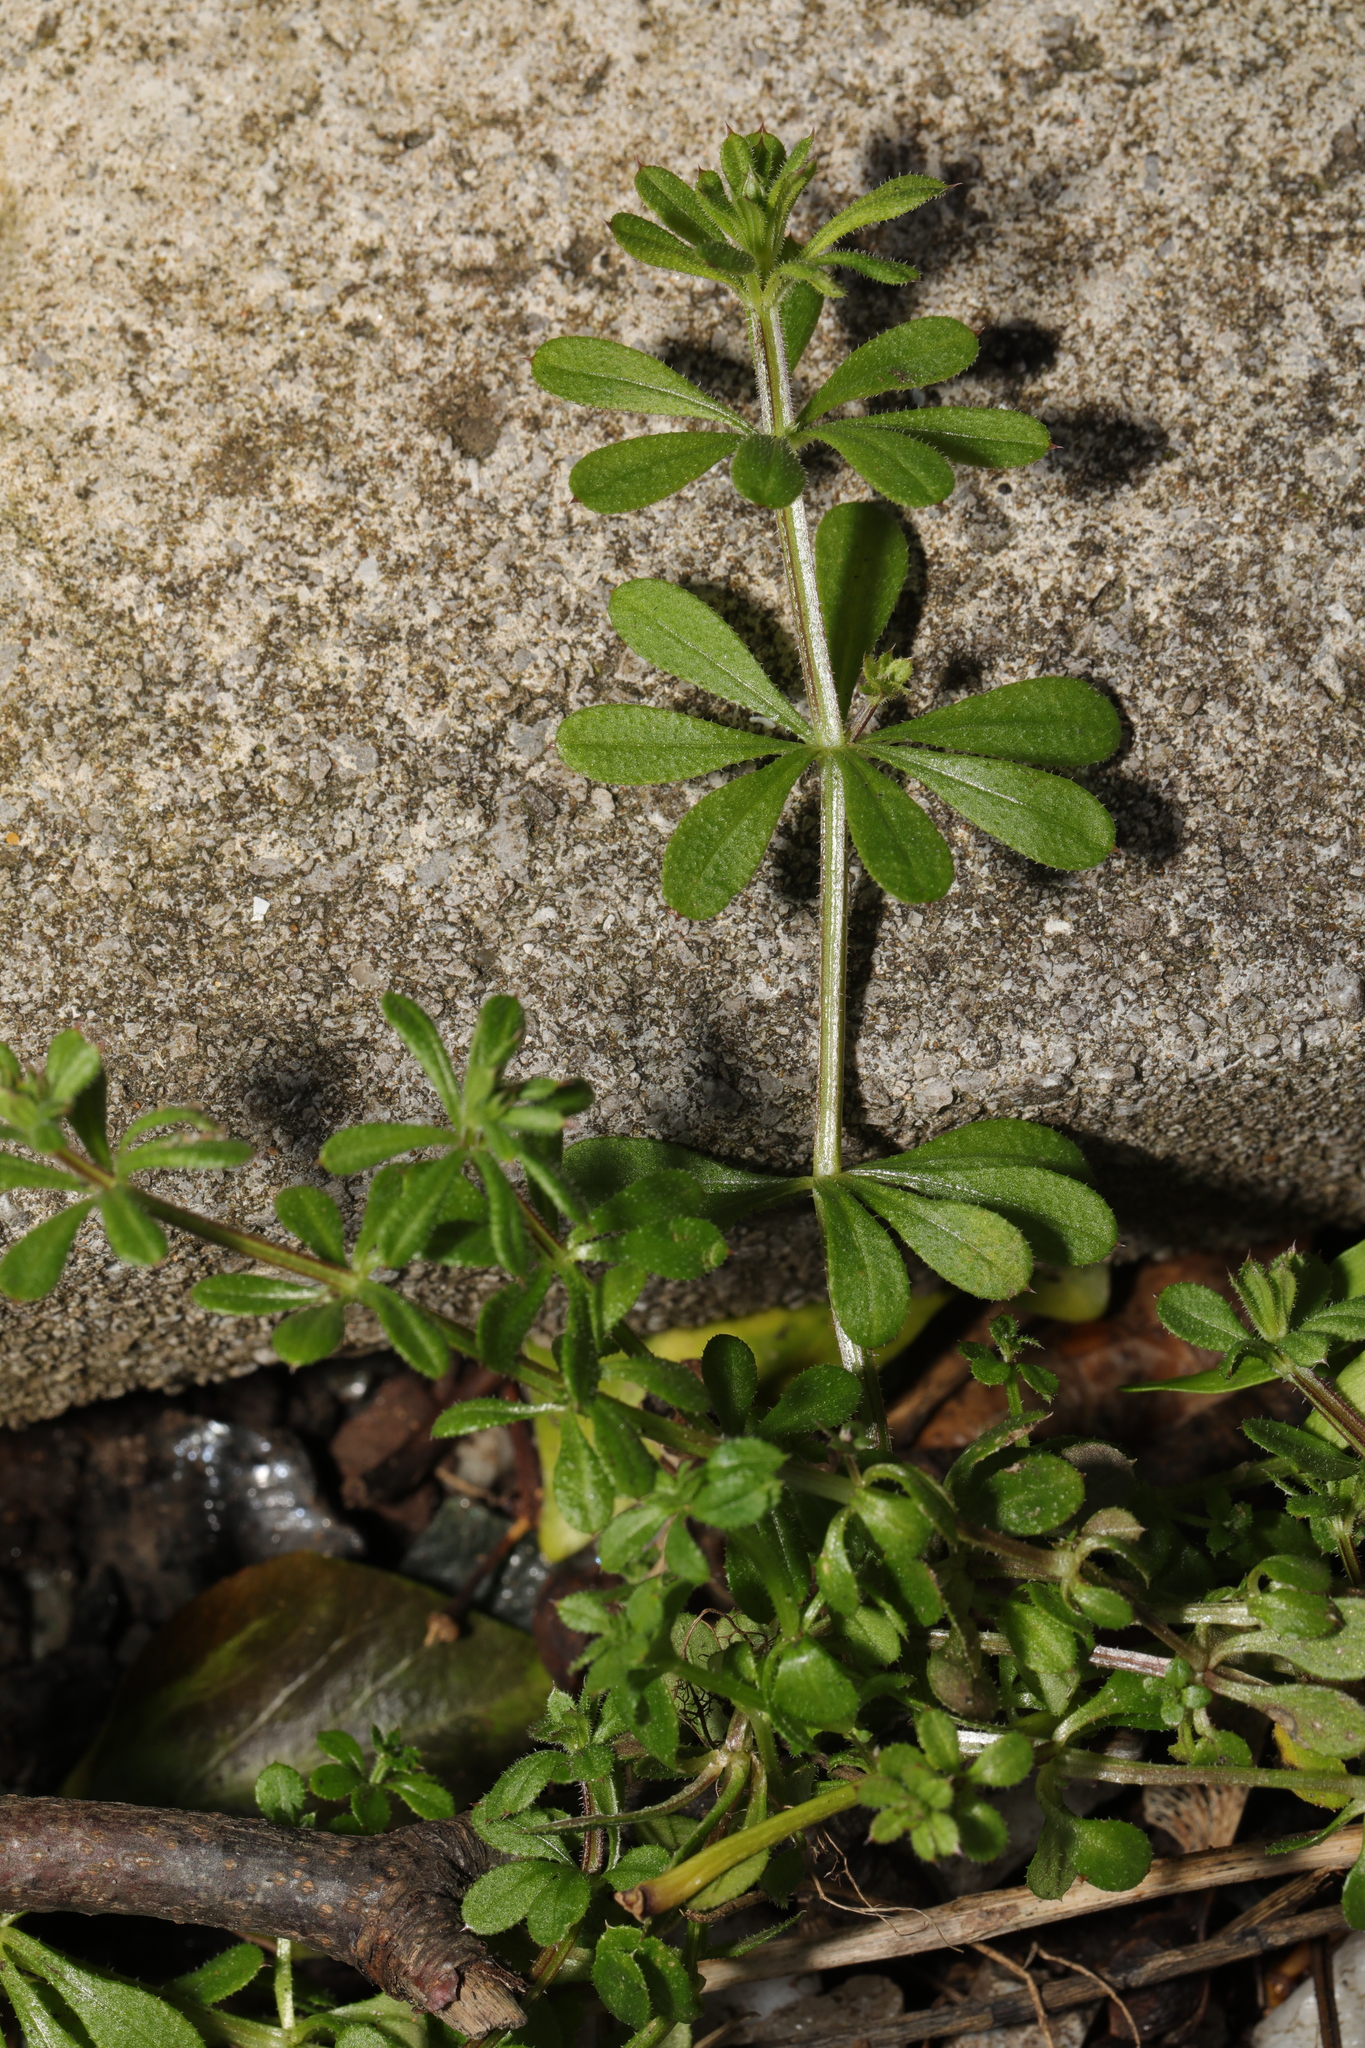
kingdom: Plantae
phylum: Tracheophyta
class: Magnoliopsida
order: Gentianales
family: Rubiaceae
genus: Galium
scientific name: Galium aparine
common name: Cleavers
